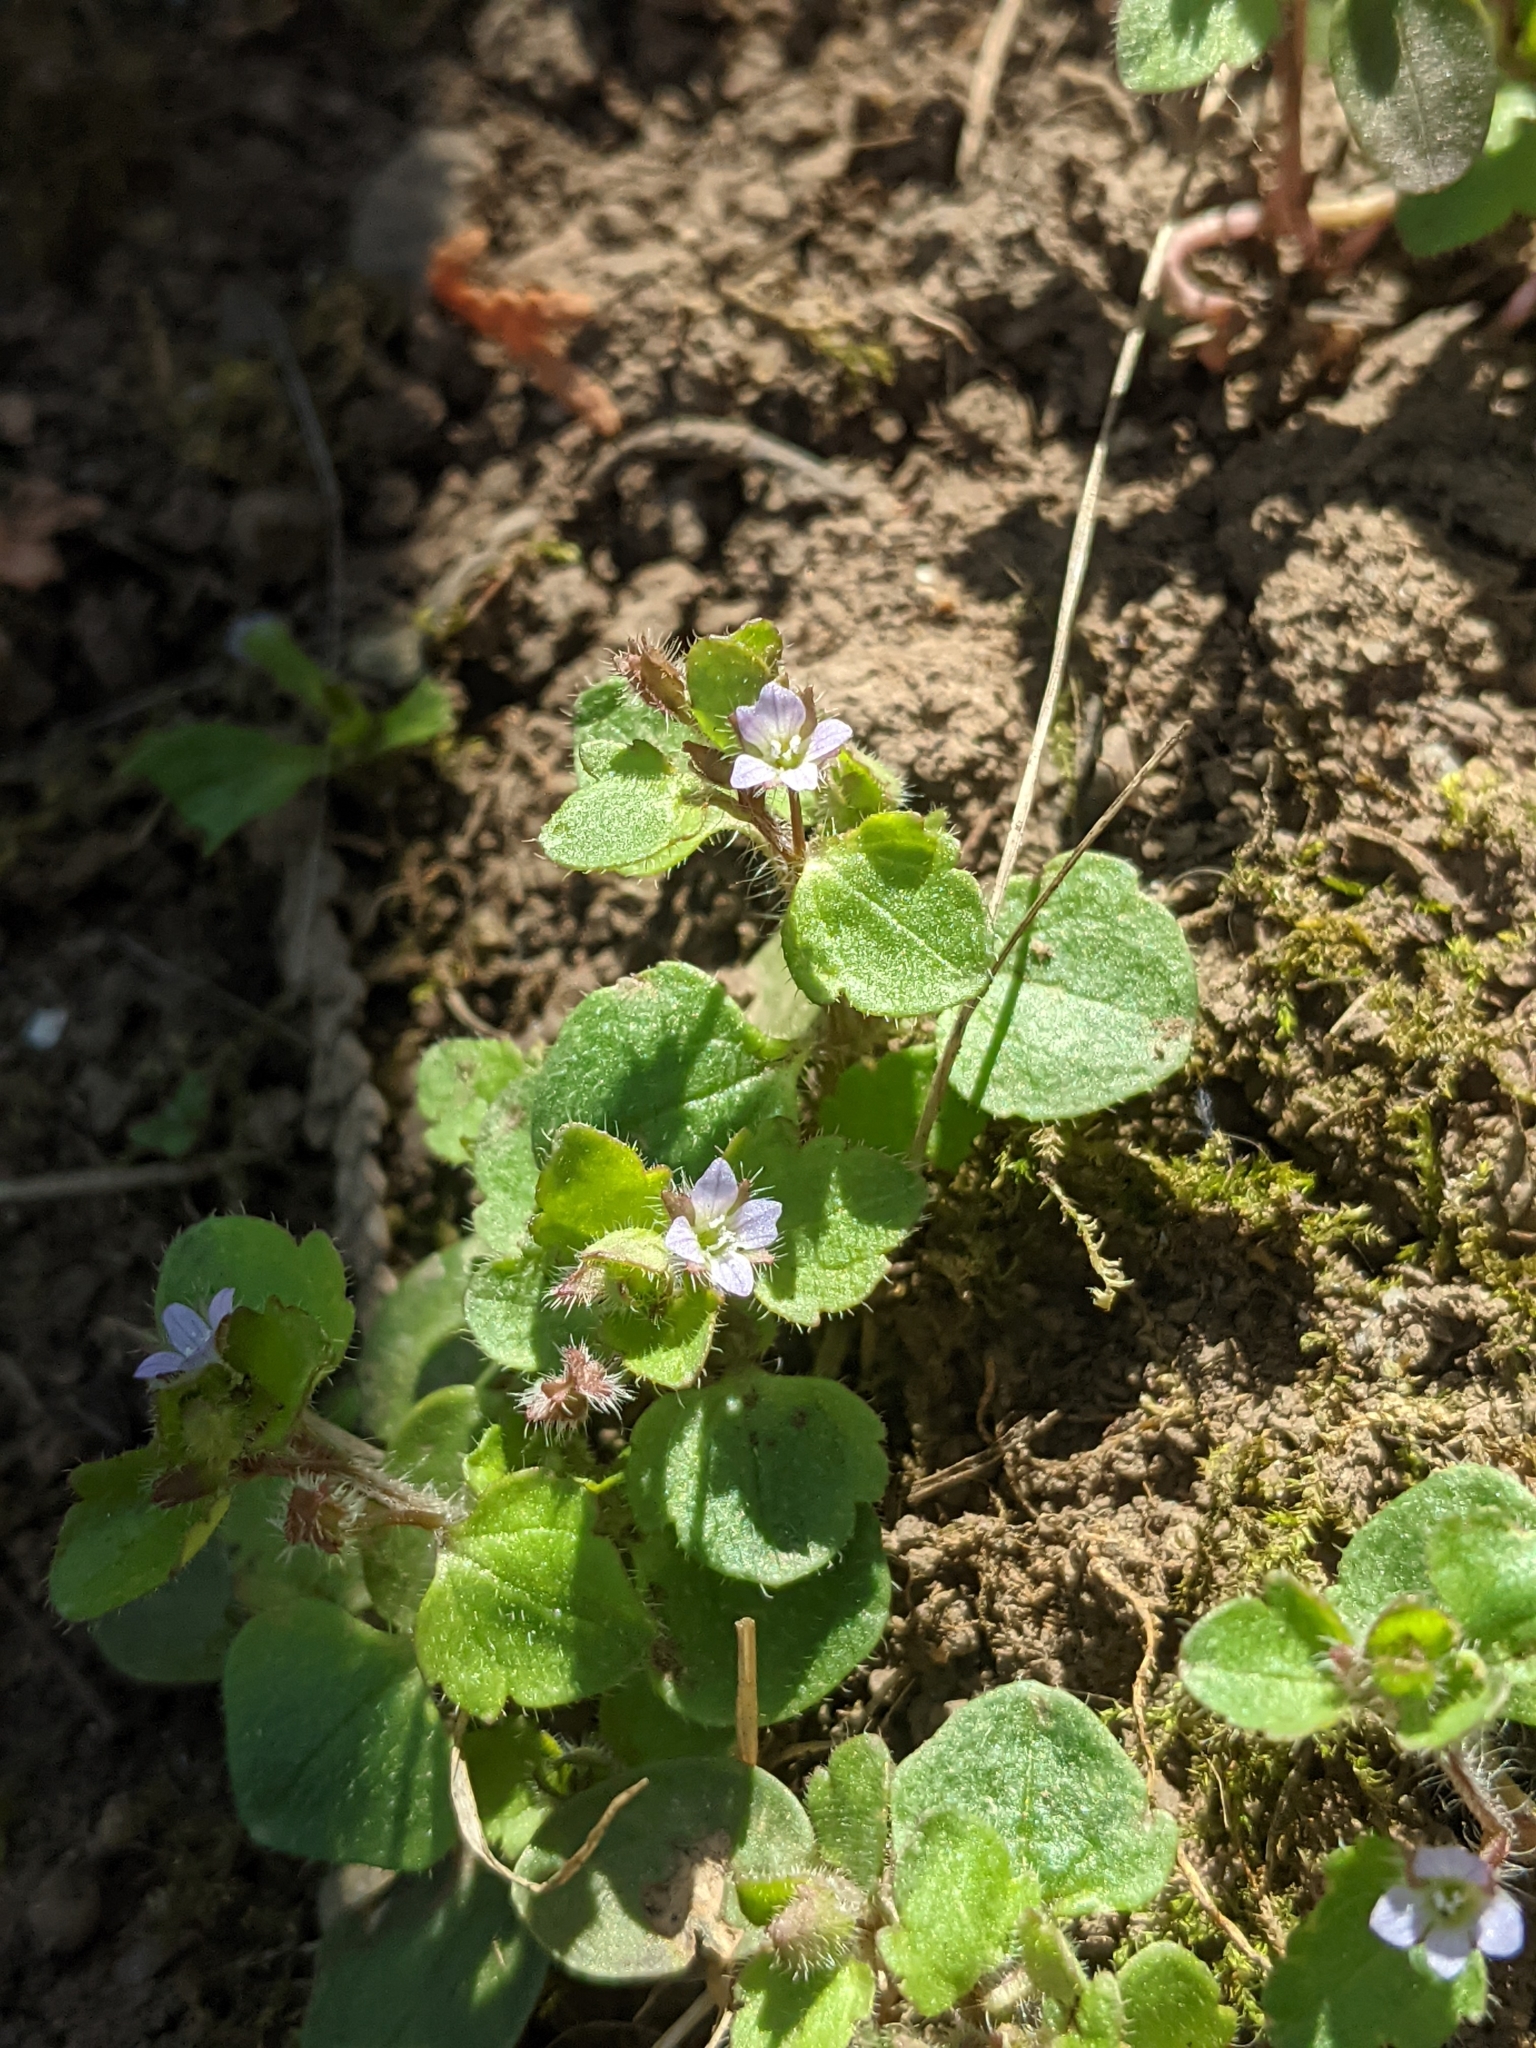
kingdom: Plantae
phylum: Tracheophyta
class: Magnoliopsida
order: Lamiales
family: Plantaginaceae
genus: Veronica
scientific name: Veronica sublobata
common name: False ivy-leaved speedwell
